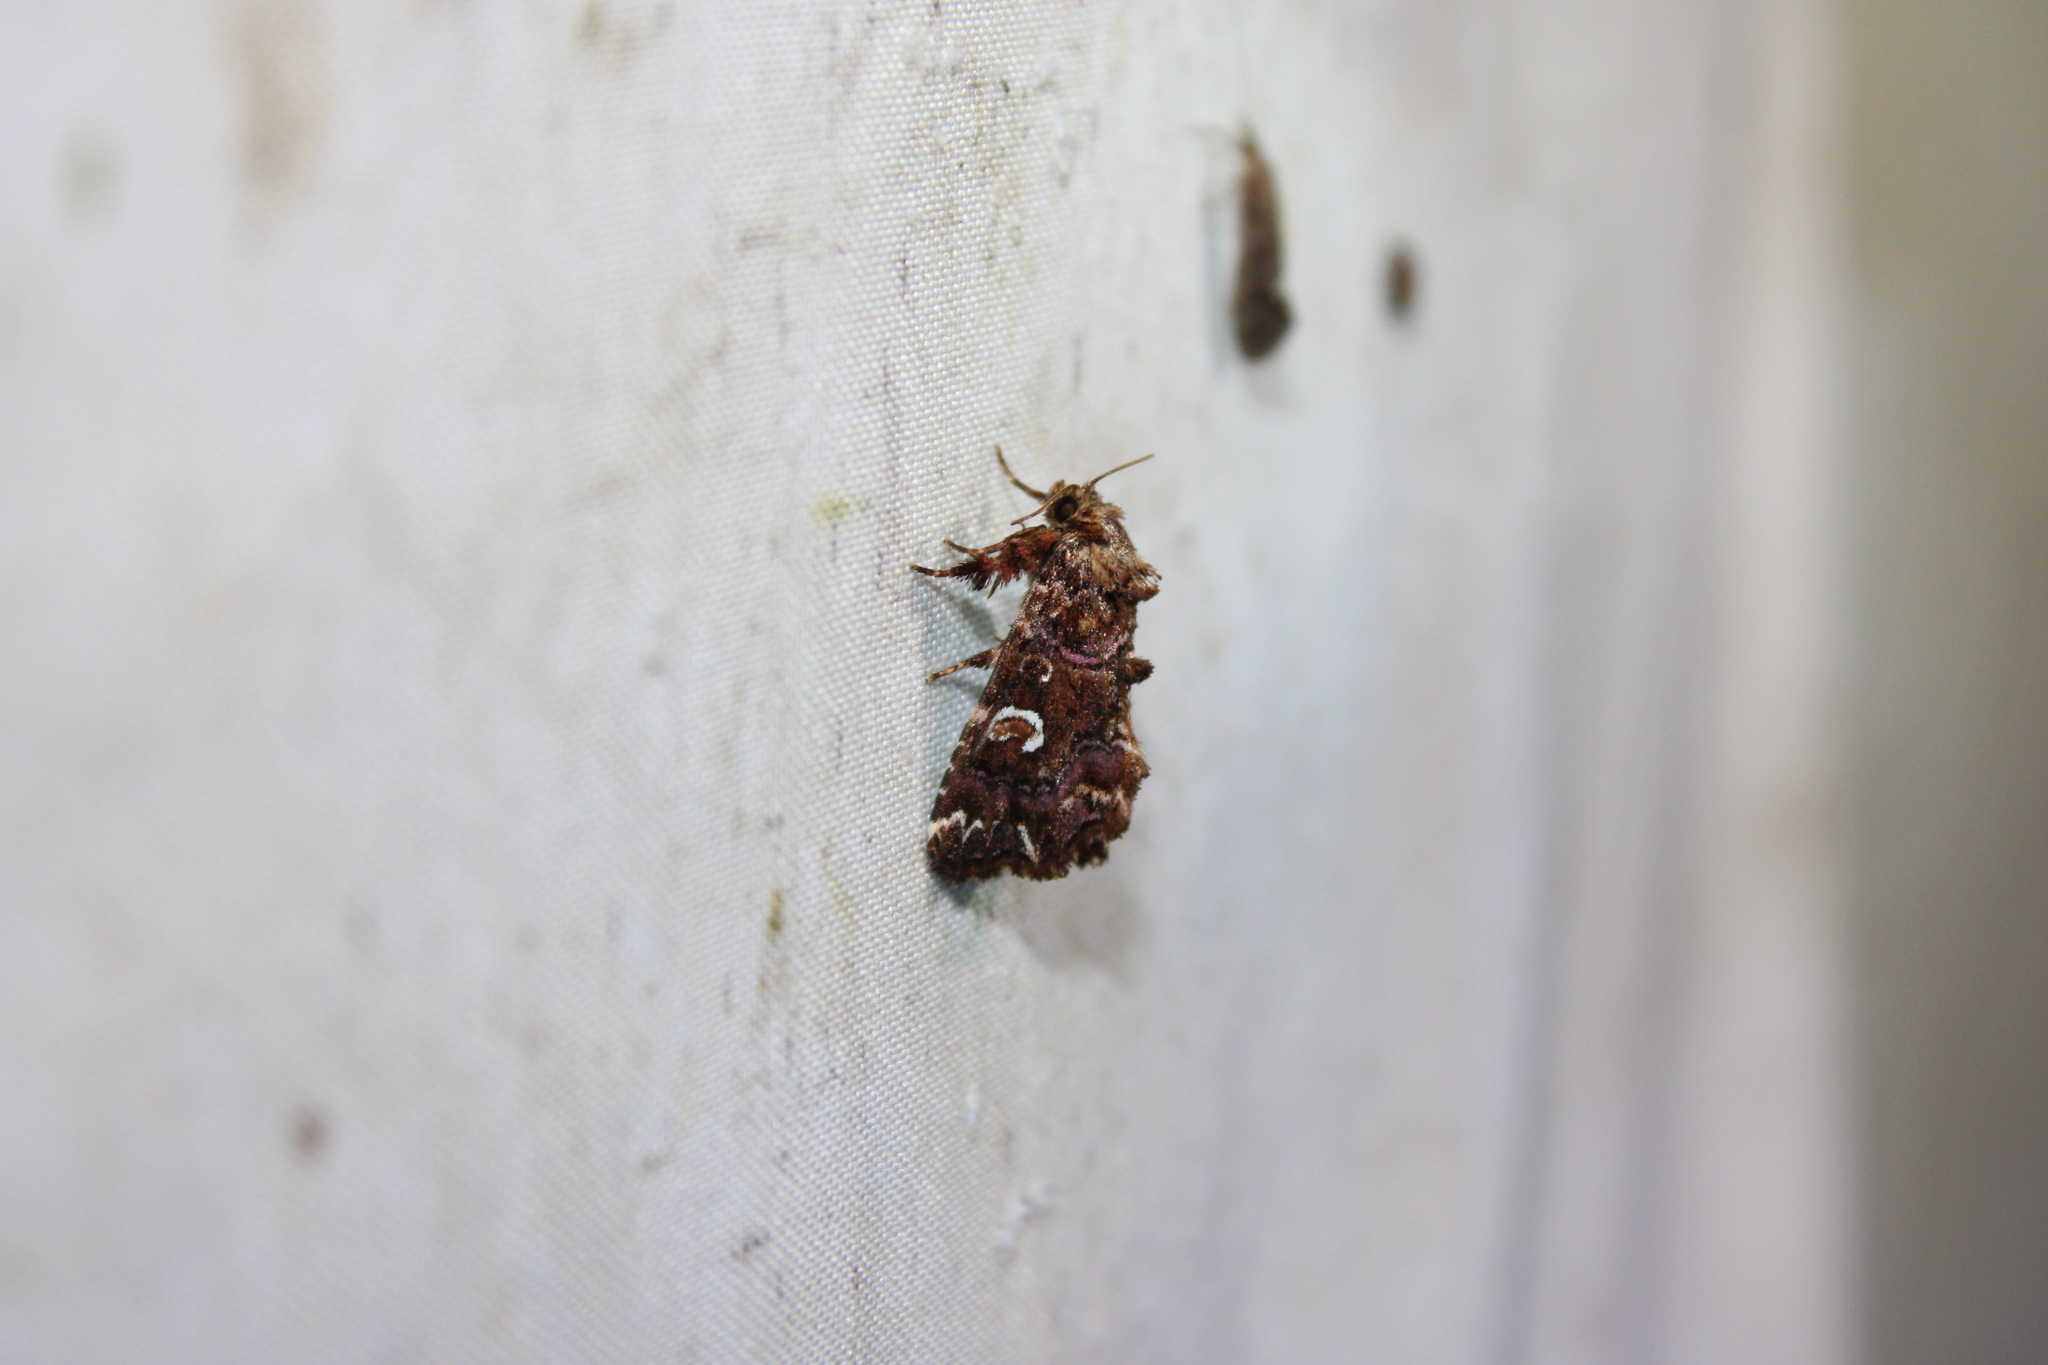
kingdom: Animalia
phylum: Arthropoda
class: Insecta
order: Lepidoptera
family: Noctuidae
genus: Callopistria
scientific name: Callopistria mollissima
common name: Pink-shaded fern moth
